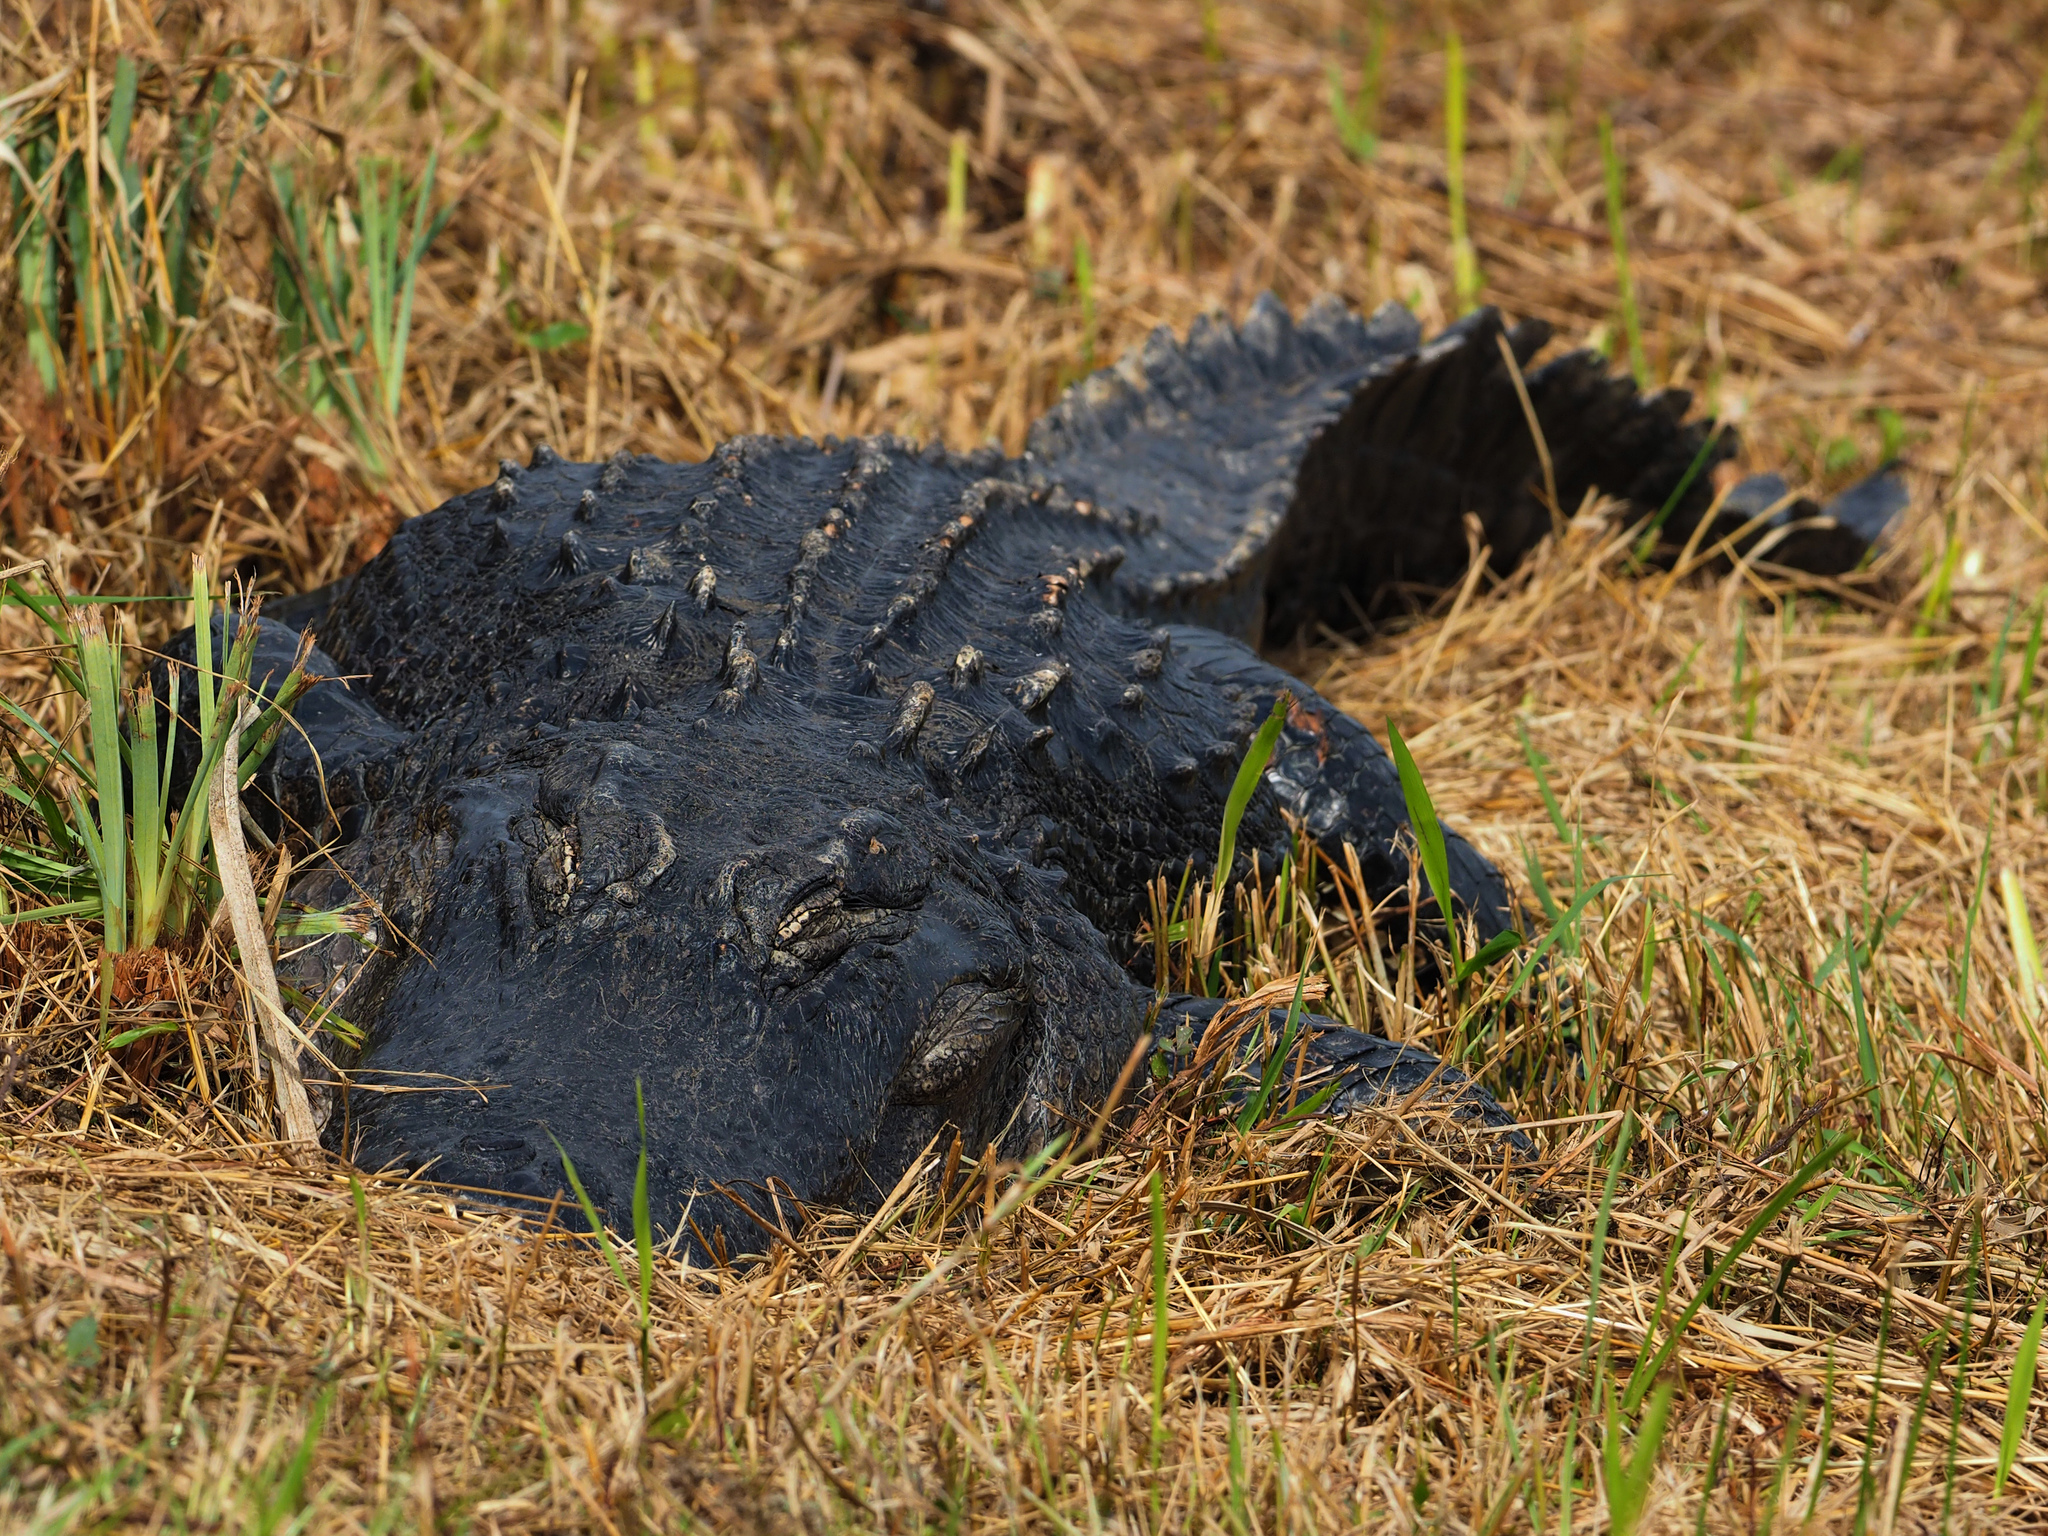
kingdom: Animalia
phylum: Chordata
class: Crocodylia
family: Alligatoridae
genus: Alligator
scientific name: Alligator mississippiensis
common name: American alligator
